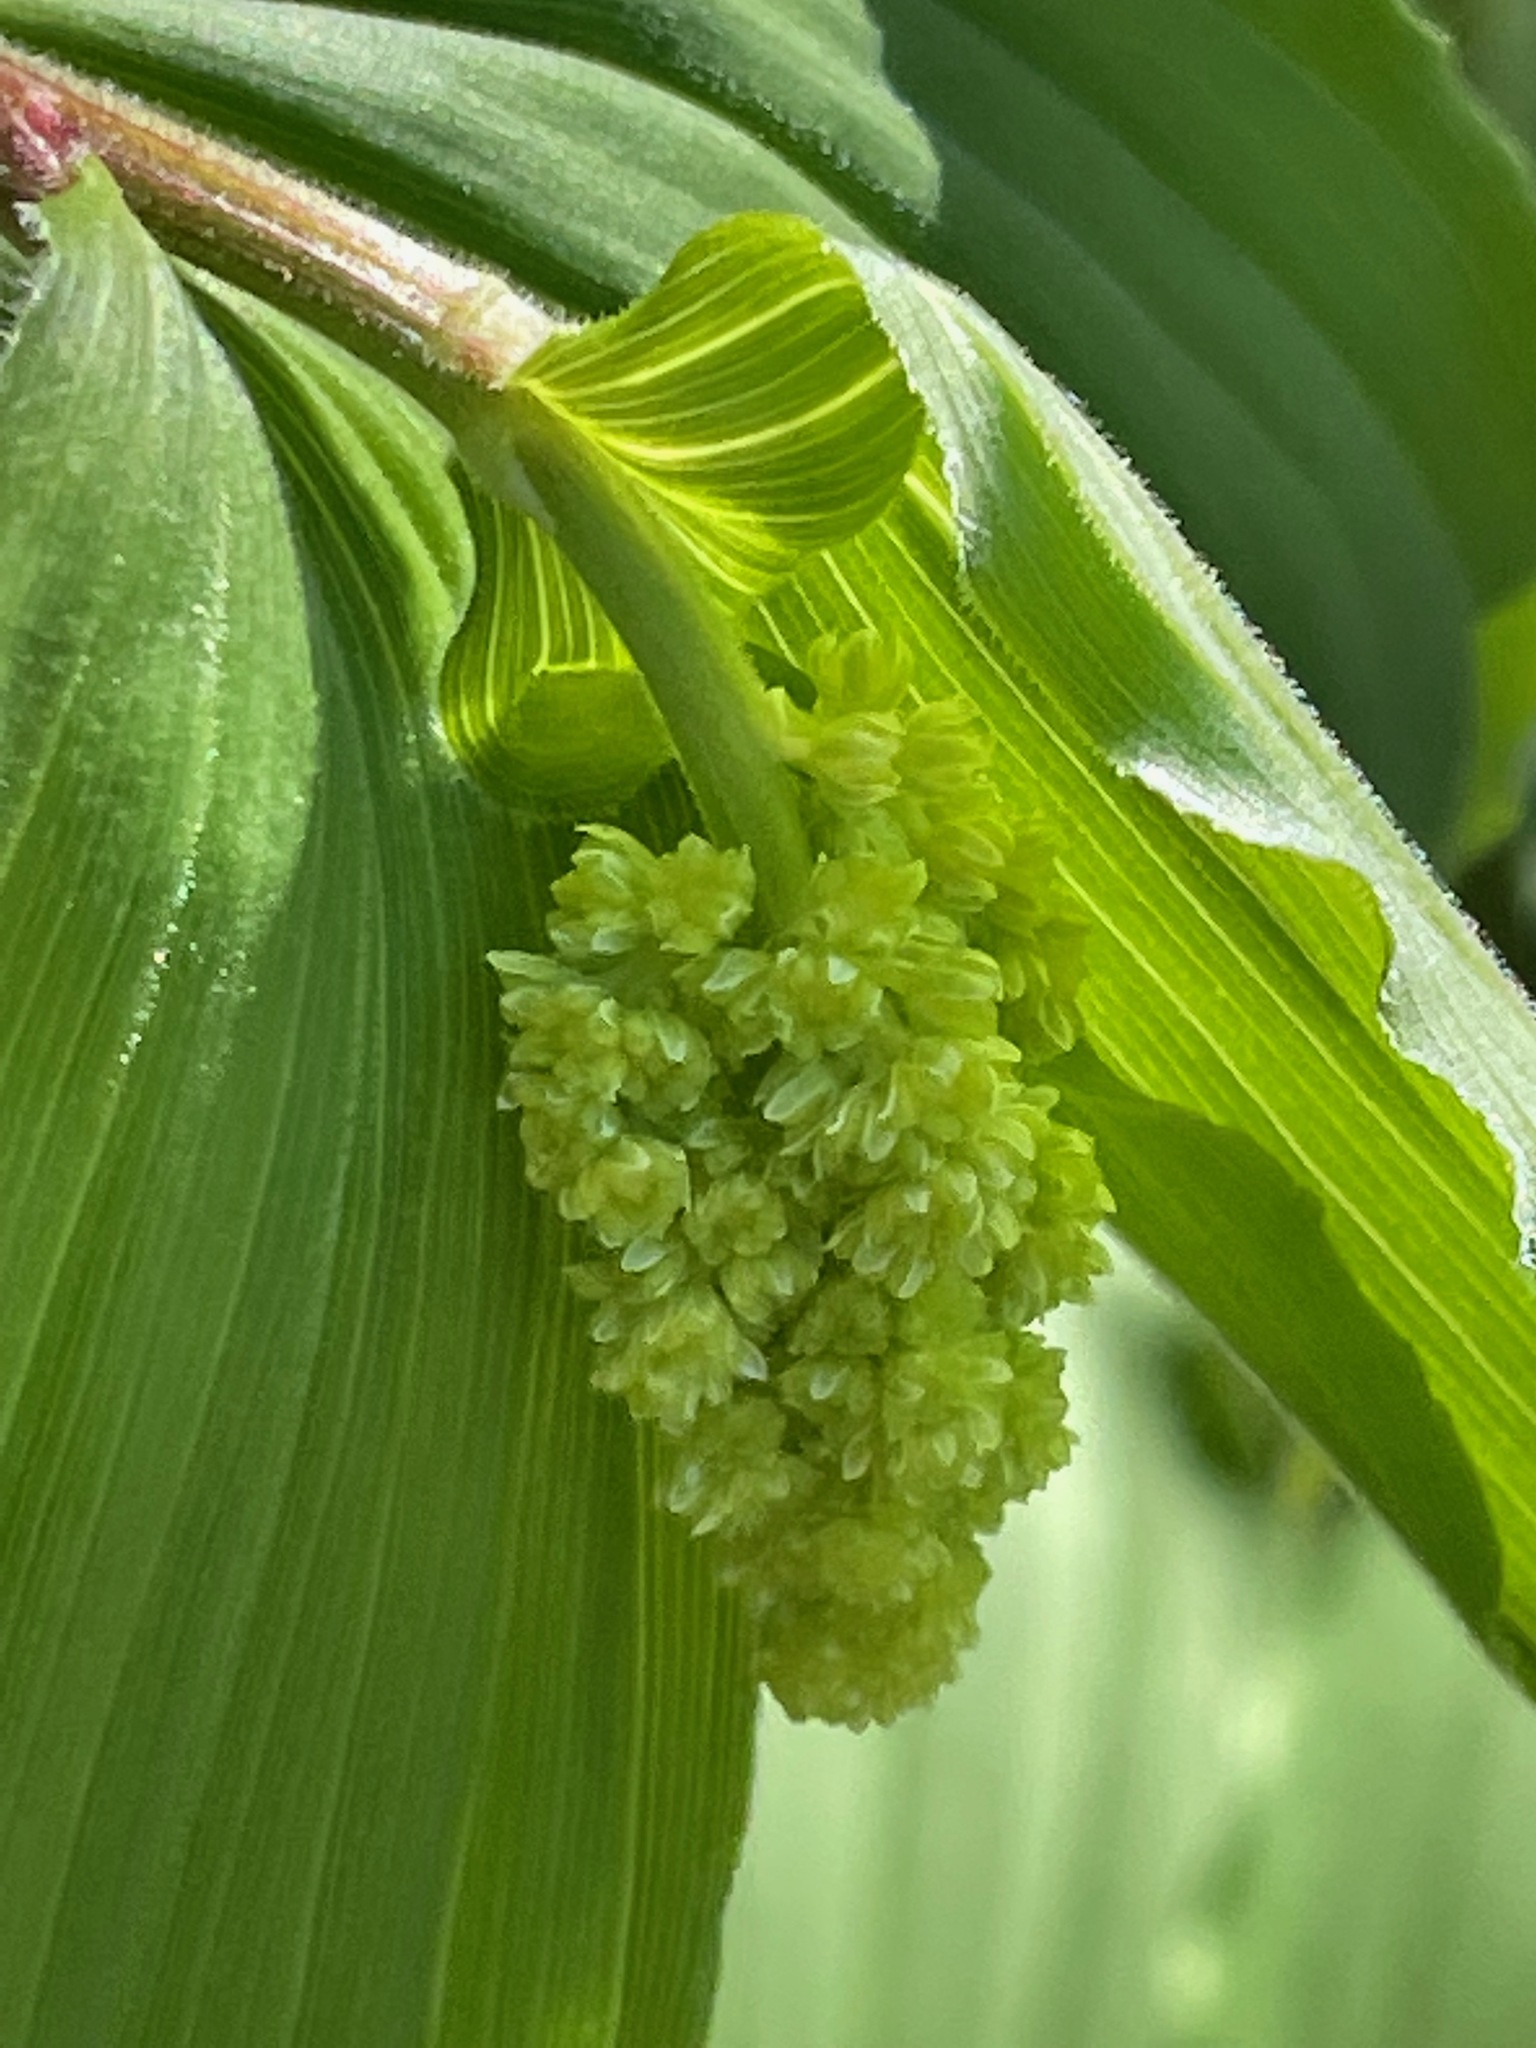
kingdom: Plantae
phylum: Tracheophyta
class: Liliopsida
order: Asparagales
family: Asparagaceae
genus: Maianthemum
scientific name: Maianthemum racemosum
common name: False spikenard
